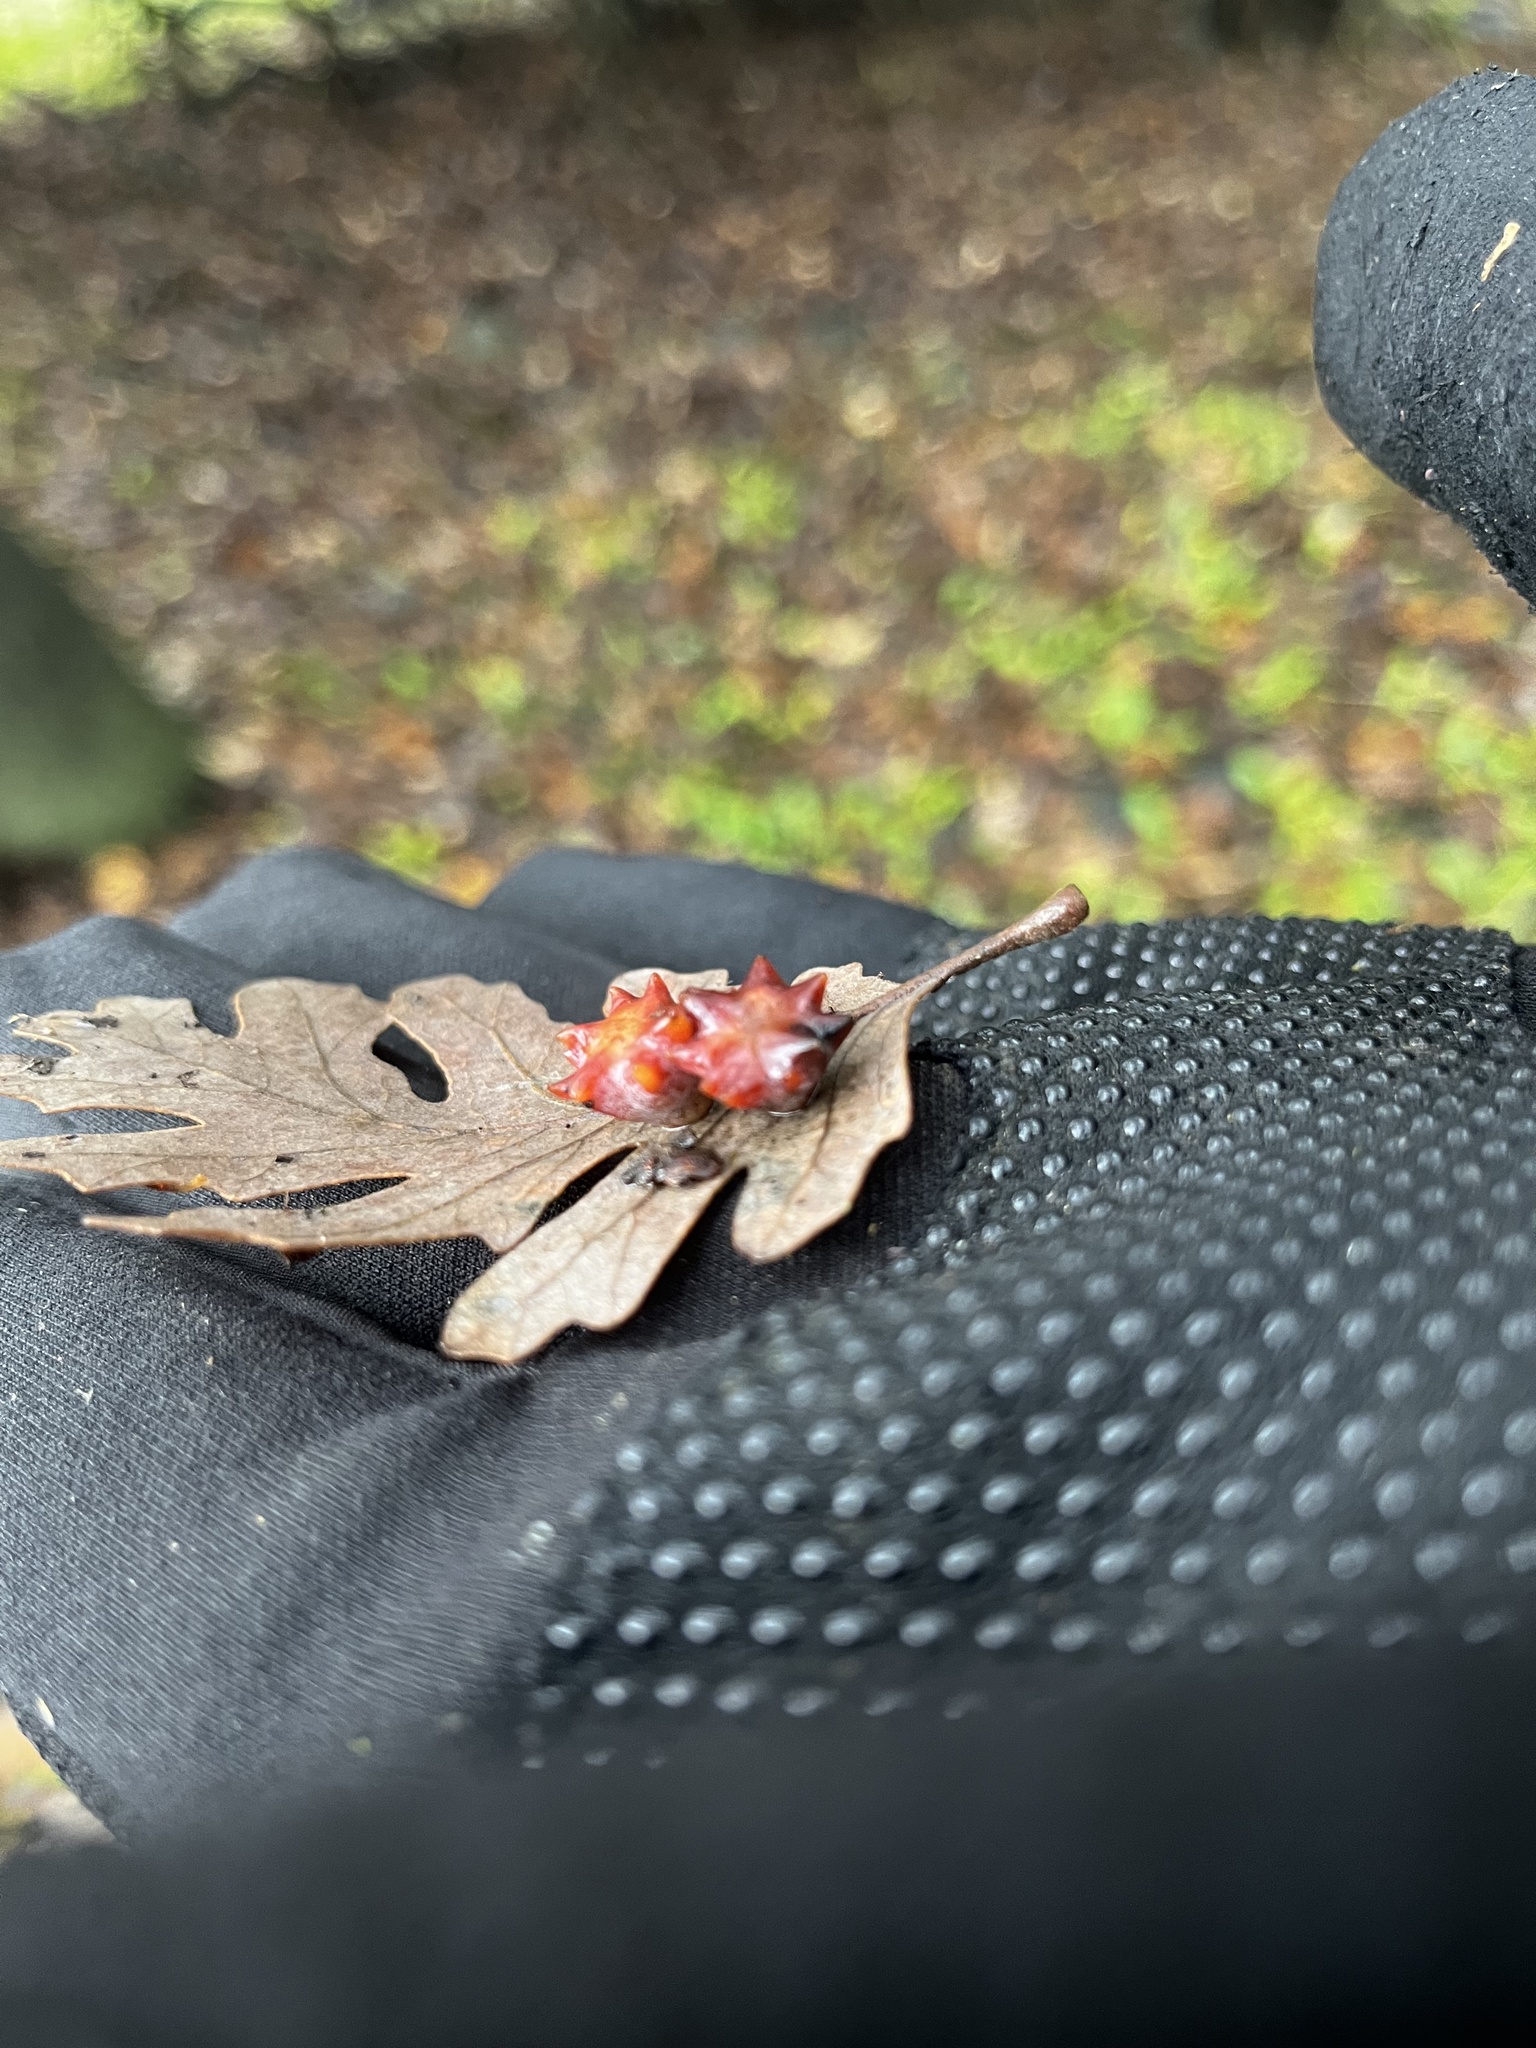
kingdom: Animalia
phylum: Arthropoda
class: Insecta
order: Hymenoptera
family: Cynipidae
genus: Cynips
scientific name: Cynips douglasi
